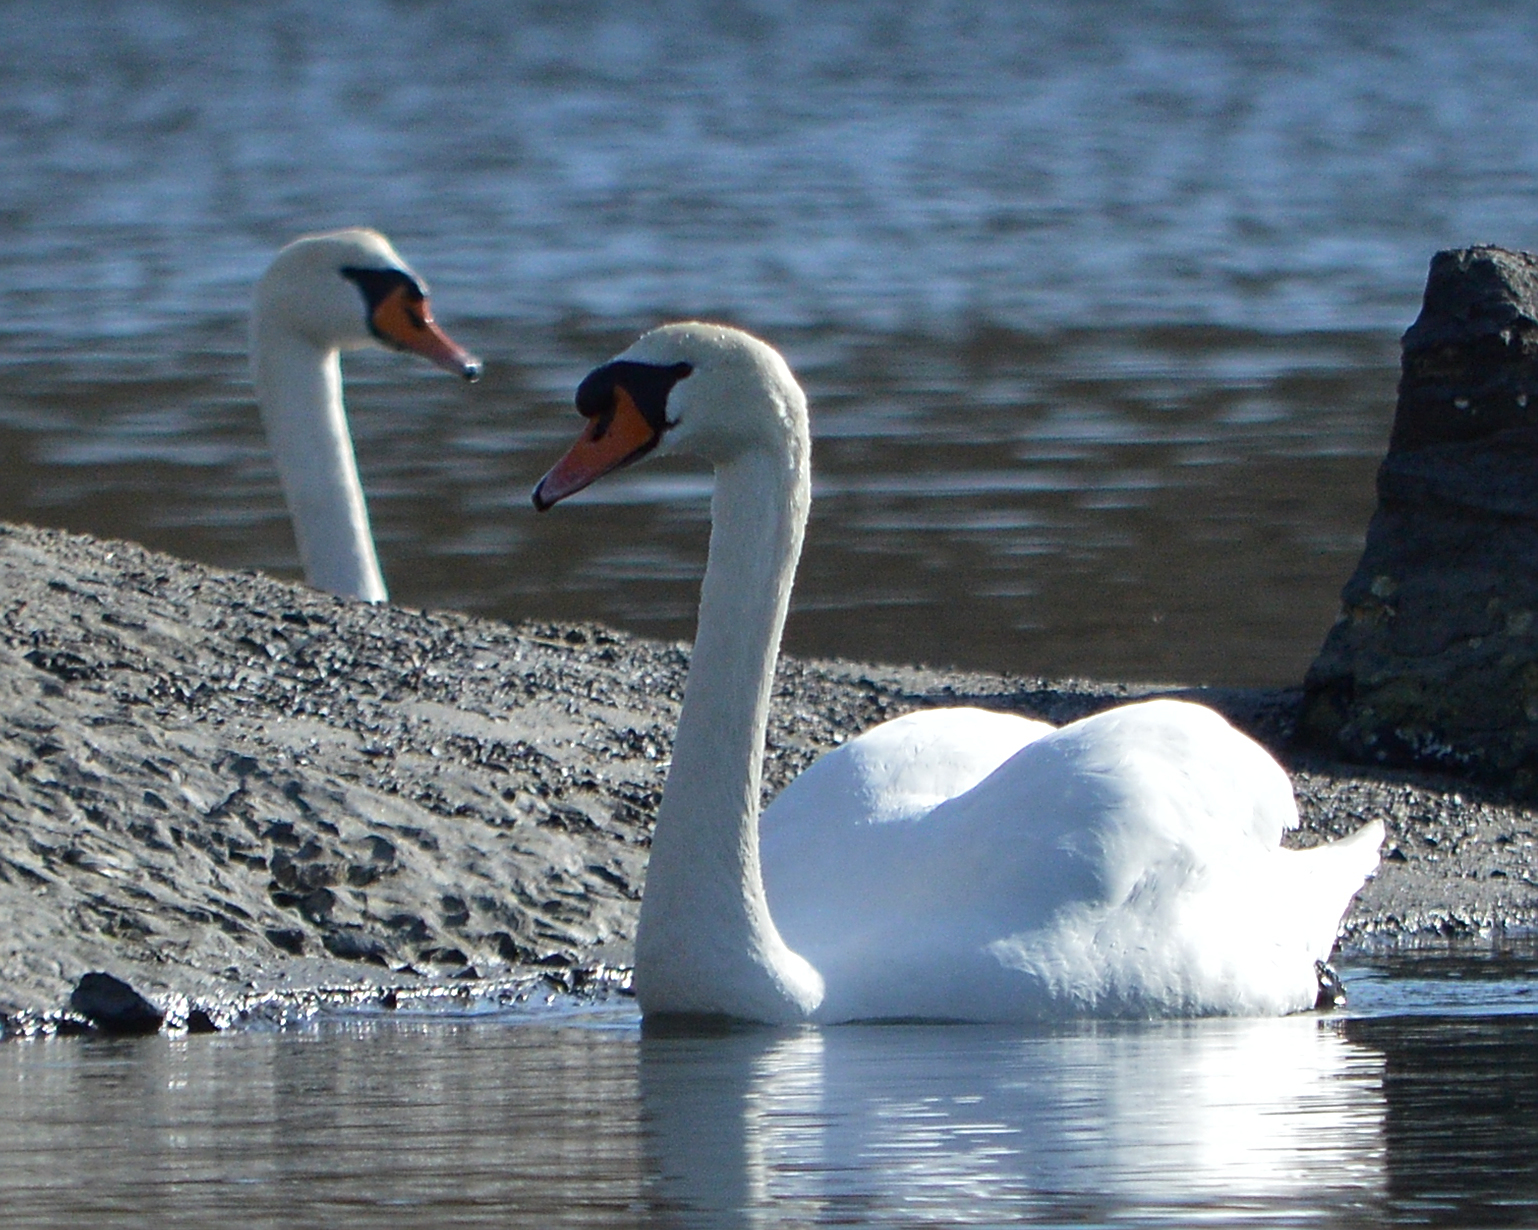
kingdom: Animalia
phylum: Chordata
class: Aves
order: Anseriformes
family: Anatidae
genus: Cygnus
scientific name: Cygnus olor
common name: Mute swan
